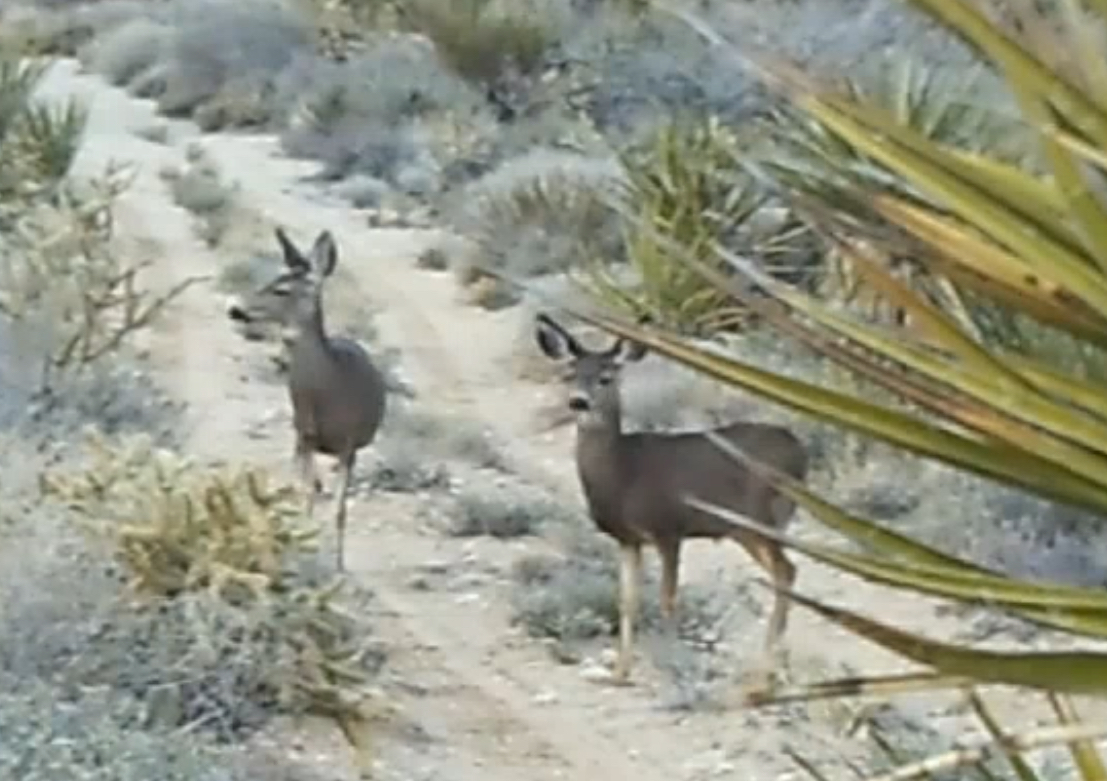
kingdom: Animalia
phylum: Chordata
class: Mammalia
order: Artiodactyla
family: Cervidae
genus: Odocoileus
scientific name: Odocoileus hemionus
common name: Mule deer
